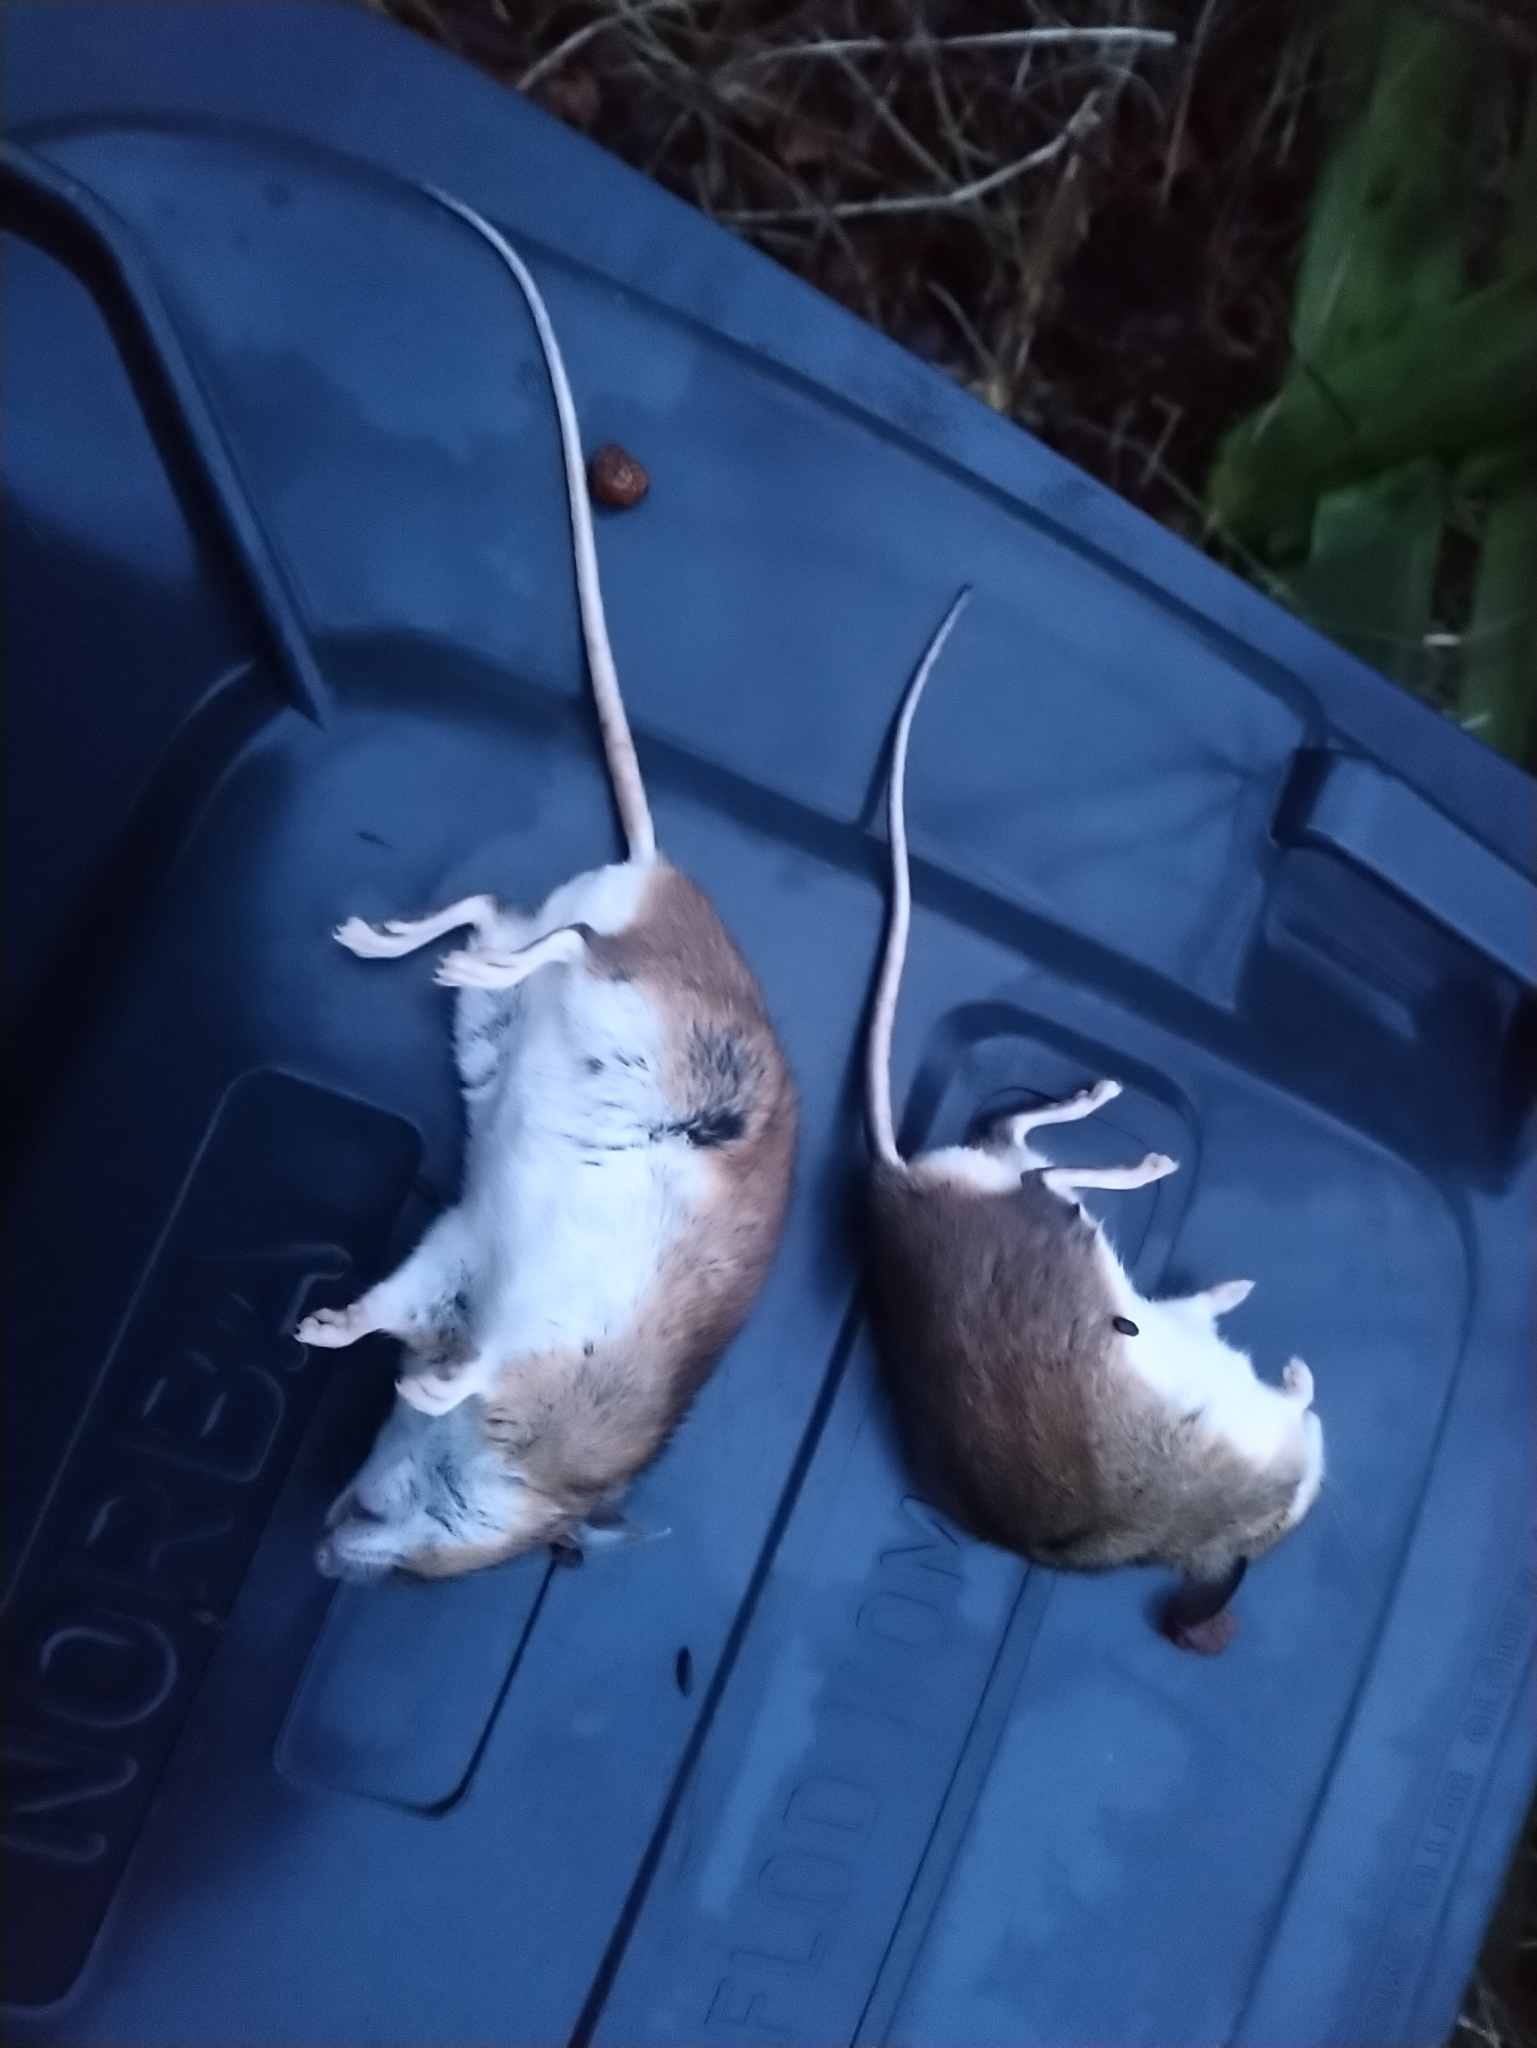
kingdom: Animalia
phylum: Chordata
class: Mammalia
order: Rodentia
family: Muridae
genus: Apodemus
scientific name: Apodemus flavicollis
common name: Yellow-necked field mouse
